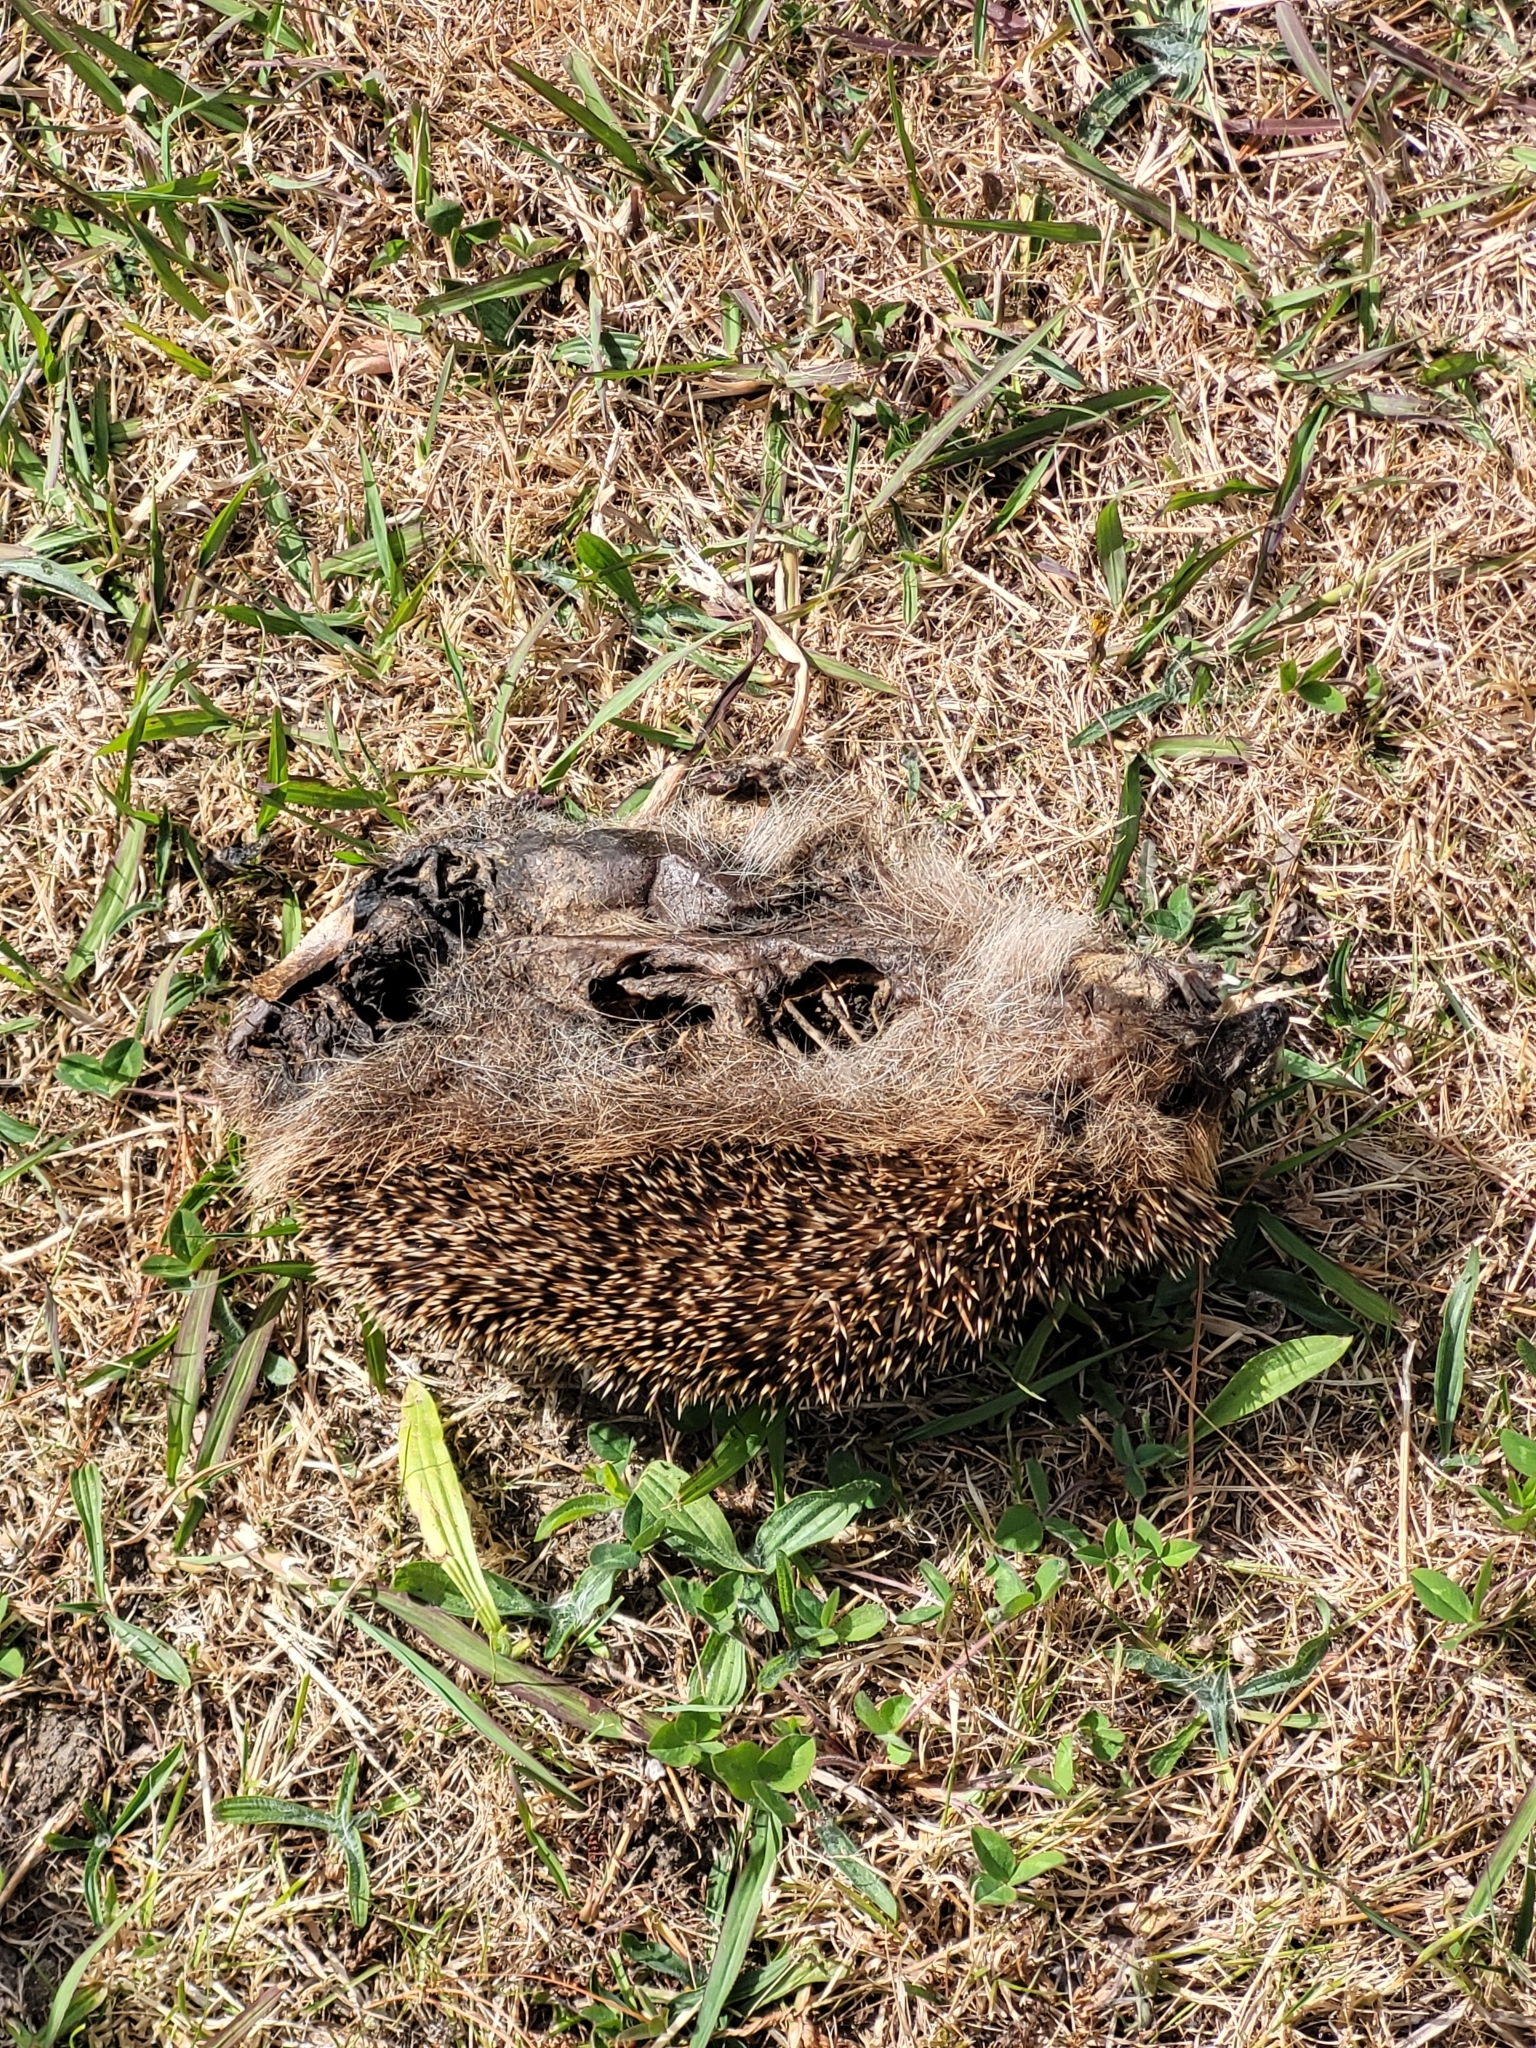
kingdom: Animalia
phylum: Chordata
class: Mammalia
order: Erinaceomorpha
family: Erinaceidae
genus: Erinaceus
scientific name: Erinaceus europaeus
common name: West european hedgehog
